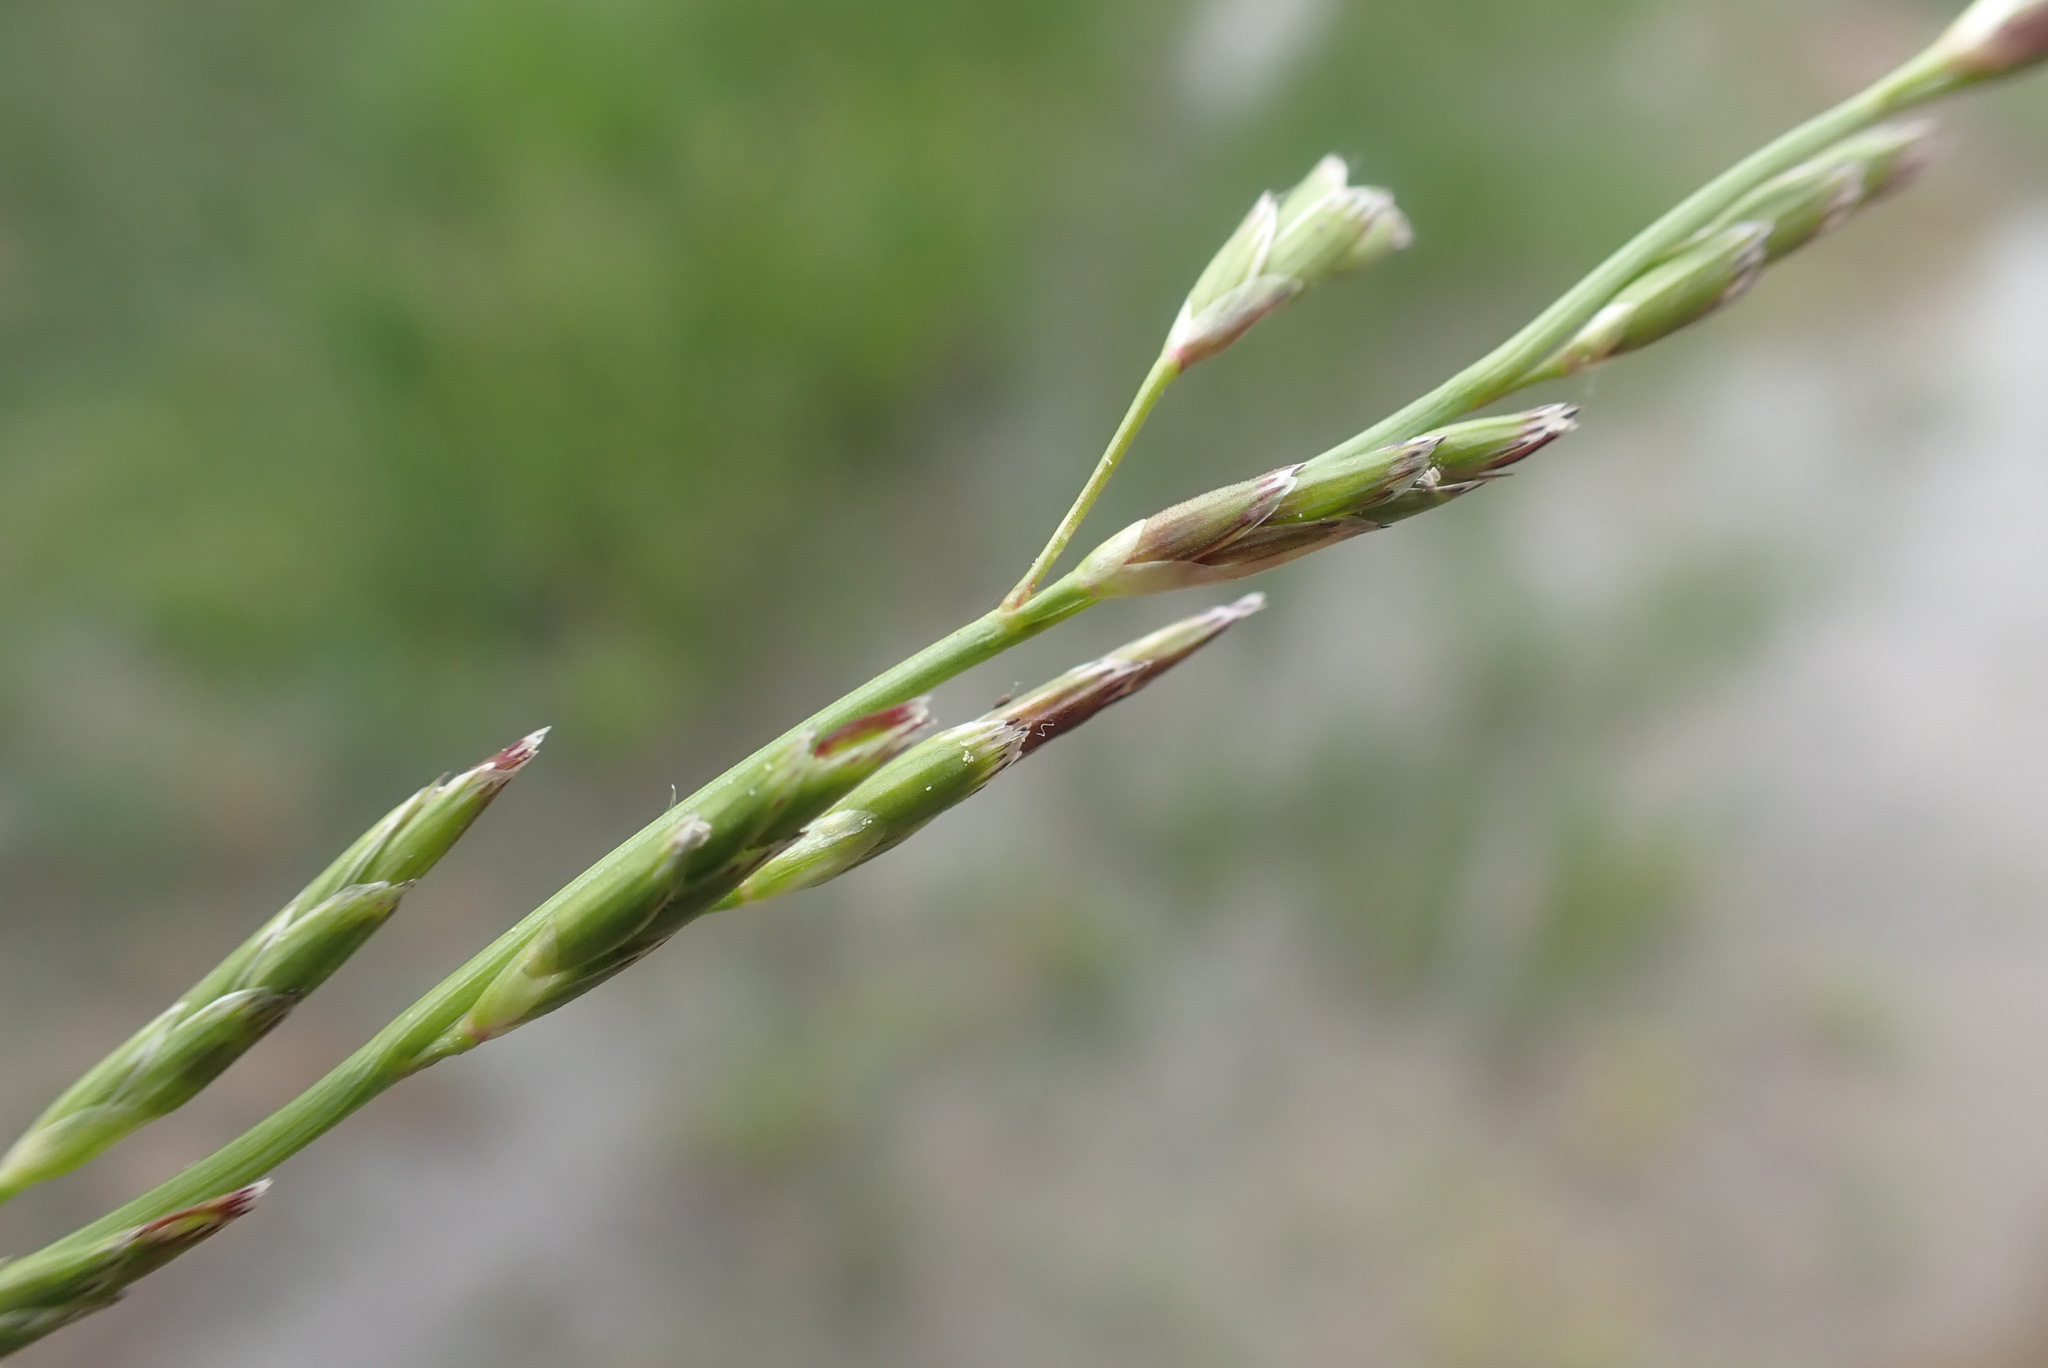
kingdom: Plantae
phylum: Tracheophyta
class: Liliopsida
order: Poales
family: Poaceae
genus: Glyceria
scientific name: Glyceria declinata
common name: Small sweet-grass
